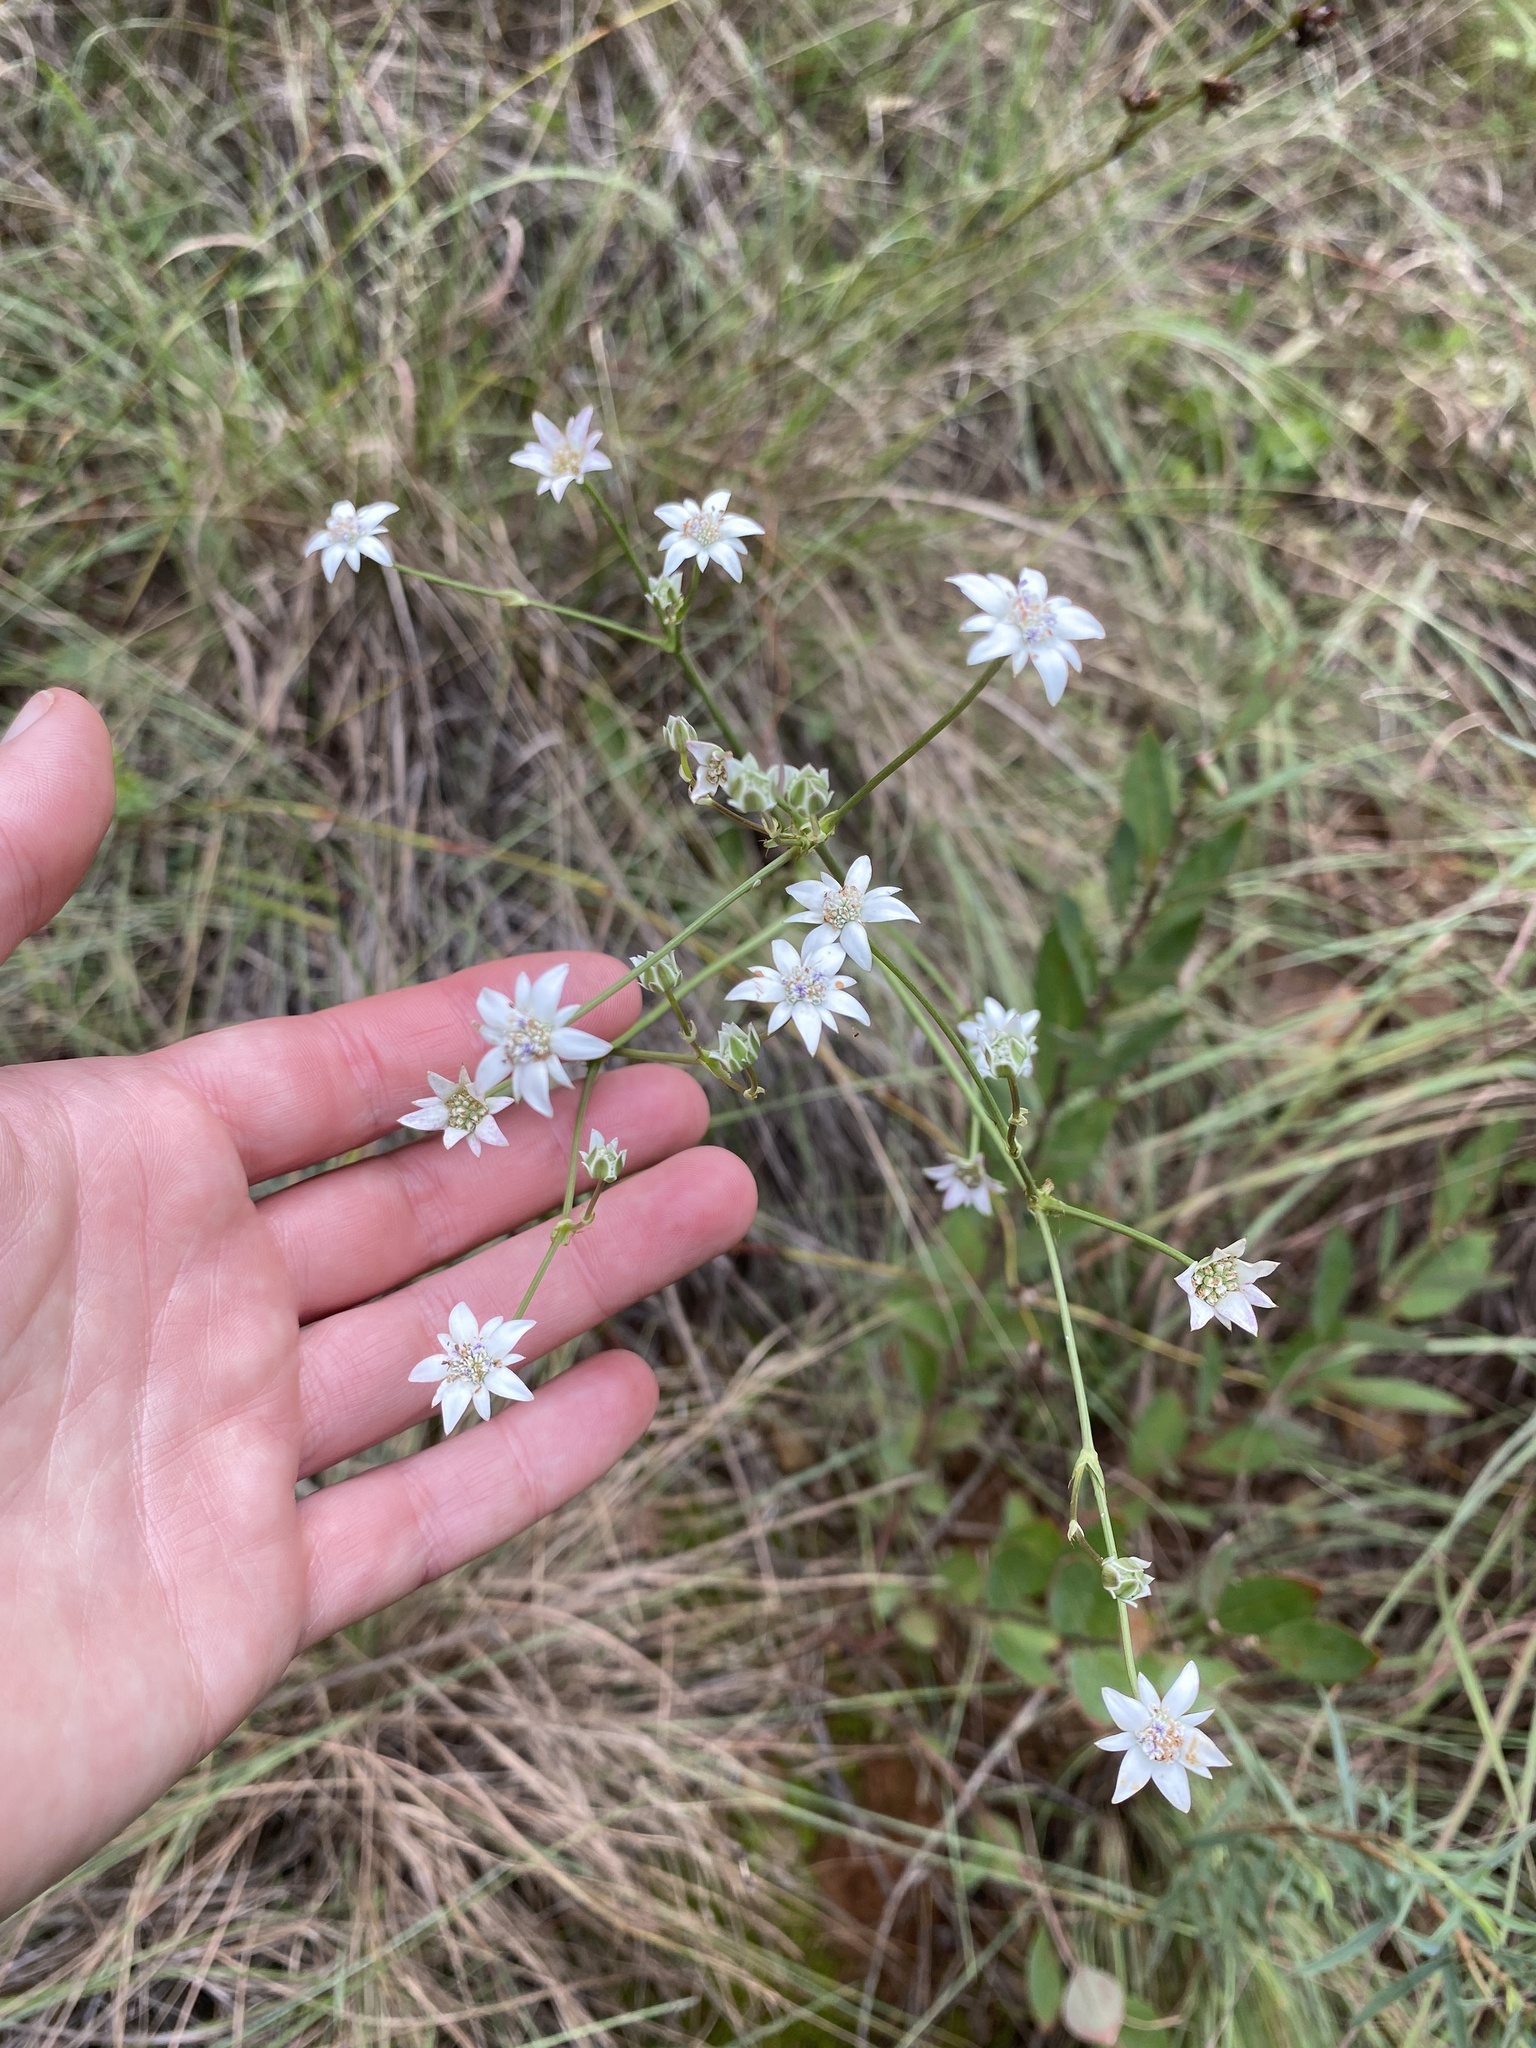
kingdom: Plantae
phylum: Tracheophyta
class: Magnoliopsida
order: Apiales
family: Apiaceae
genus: Alepidea
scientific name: Alepidea peduncularis
